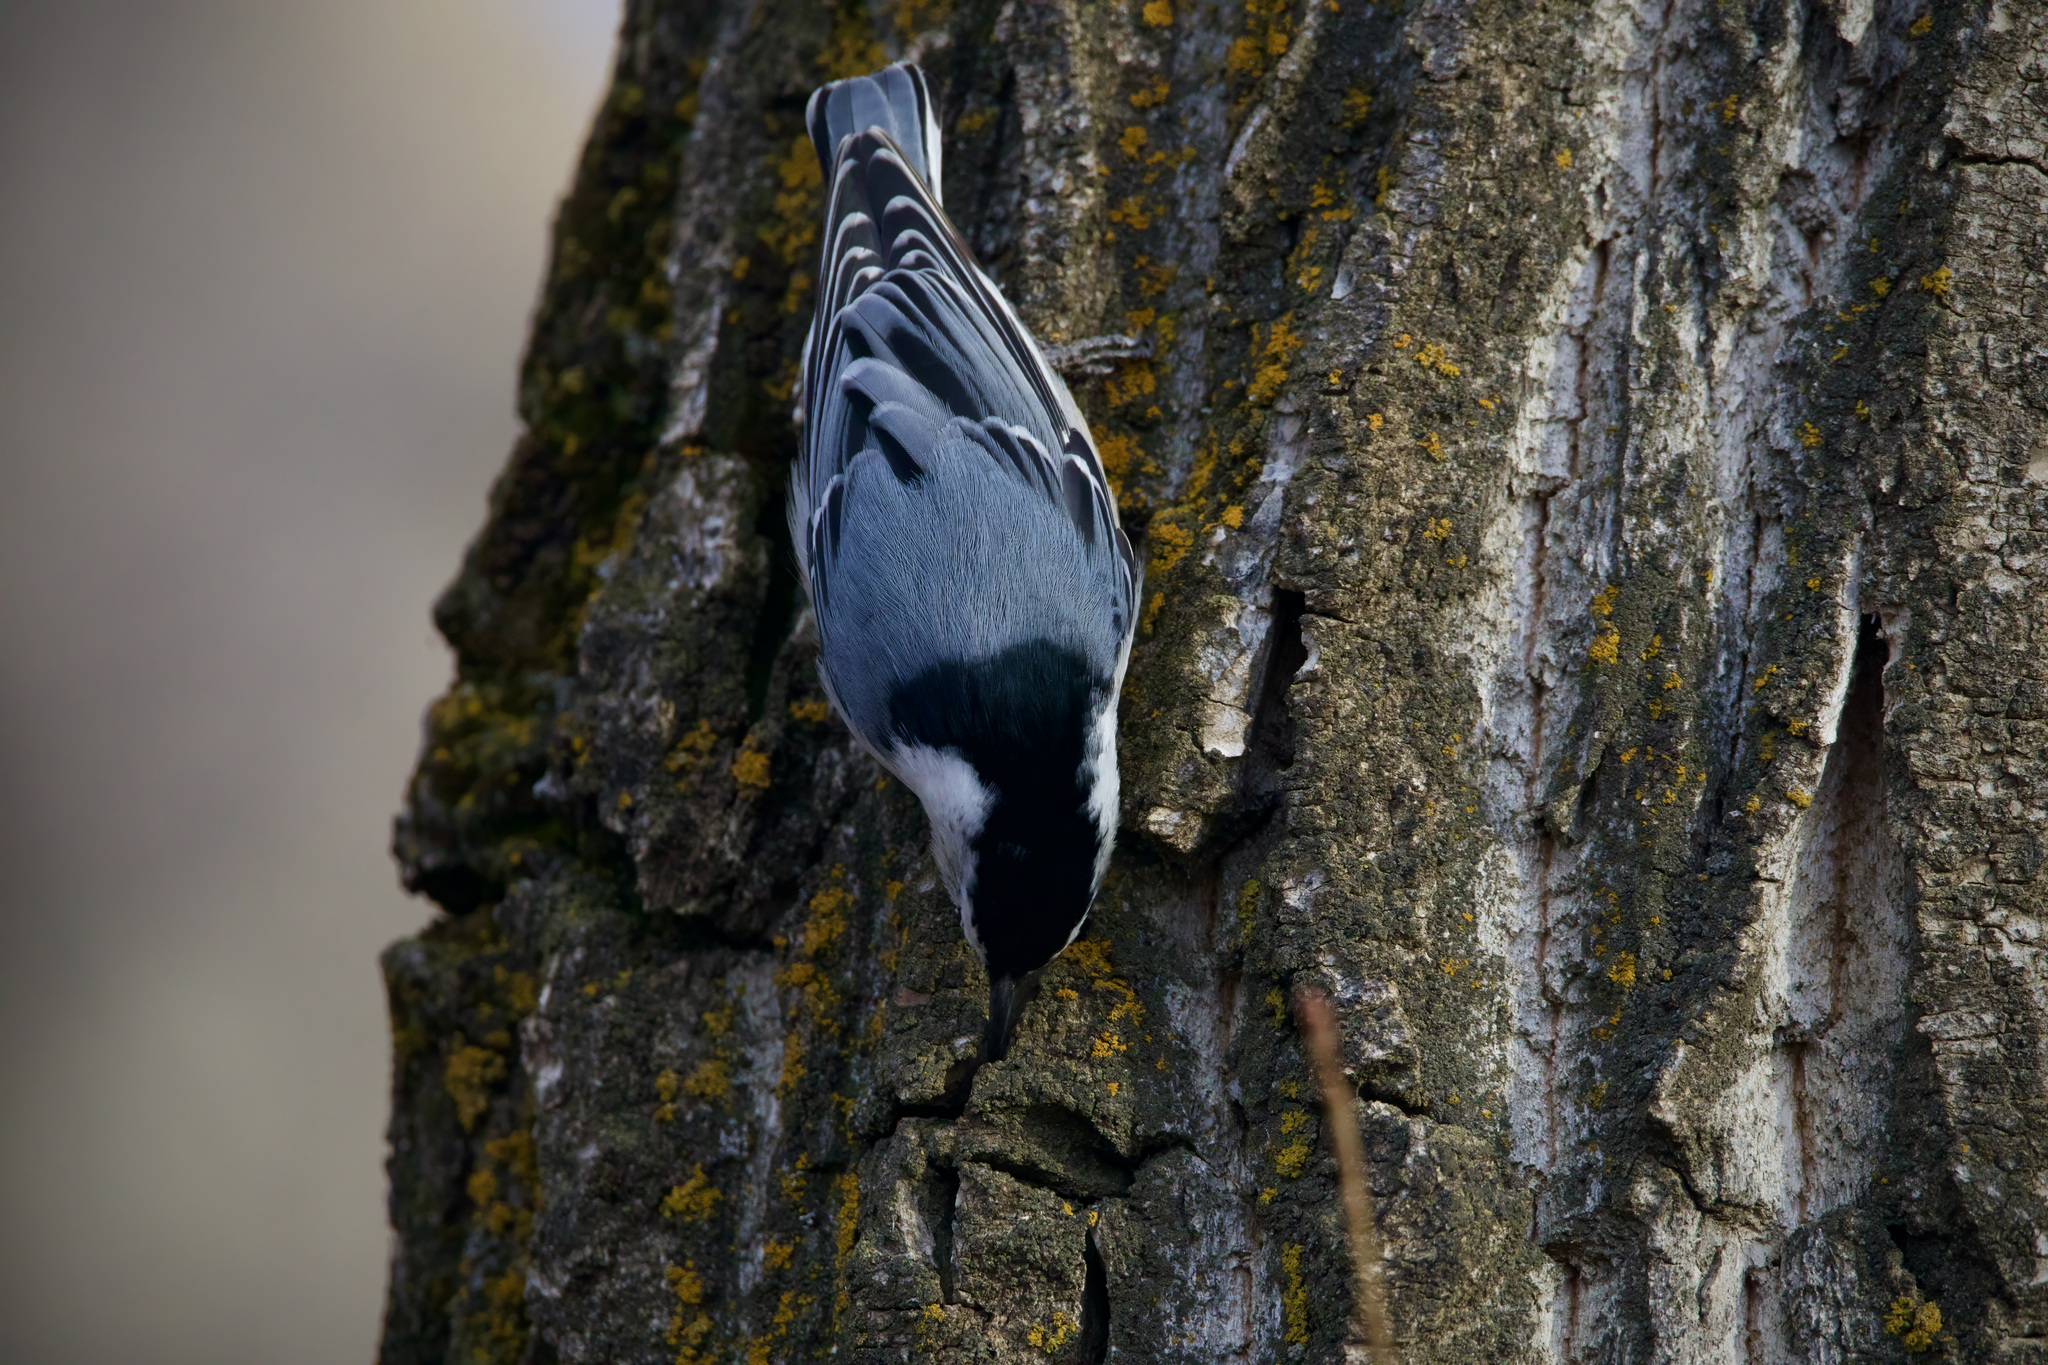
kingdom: Animalia
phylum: Chordata
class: Aves
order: Passeriformes
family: Sittidae
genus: Sitta
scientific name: Sitta carolinensis
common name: White-breasted nuthatch
